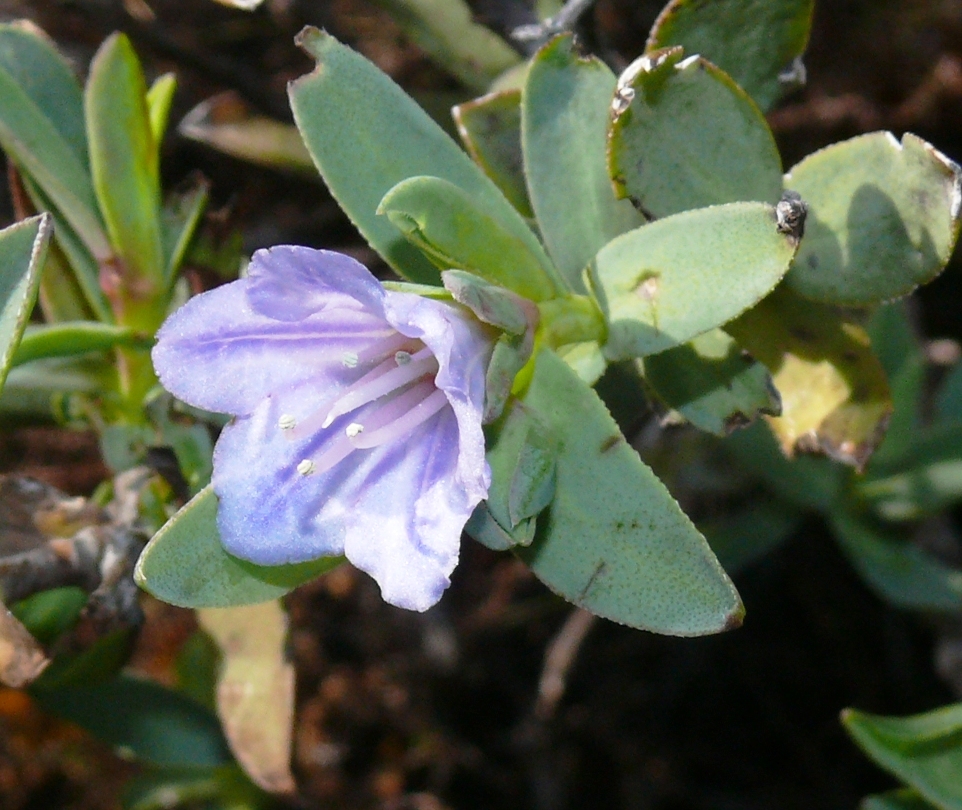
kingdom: Plantae
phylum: Tracheophyta
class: Magnoliopsida
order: Boraginales
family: Boraginaceae
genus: Lobostemon
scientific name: Lobostemon glaucophyllus
